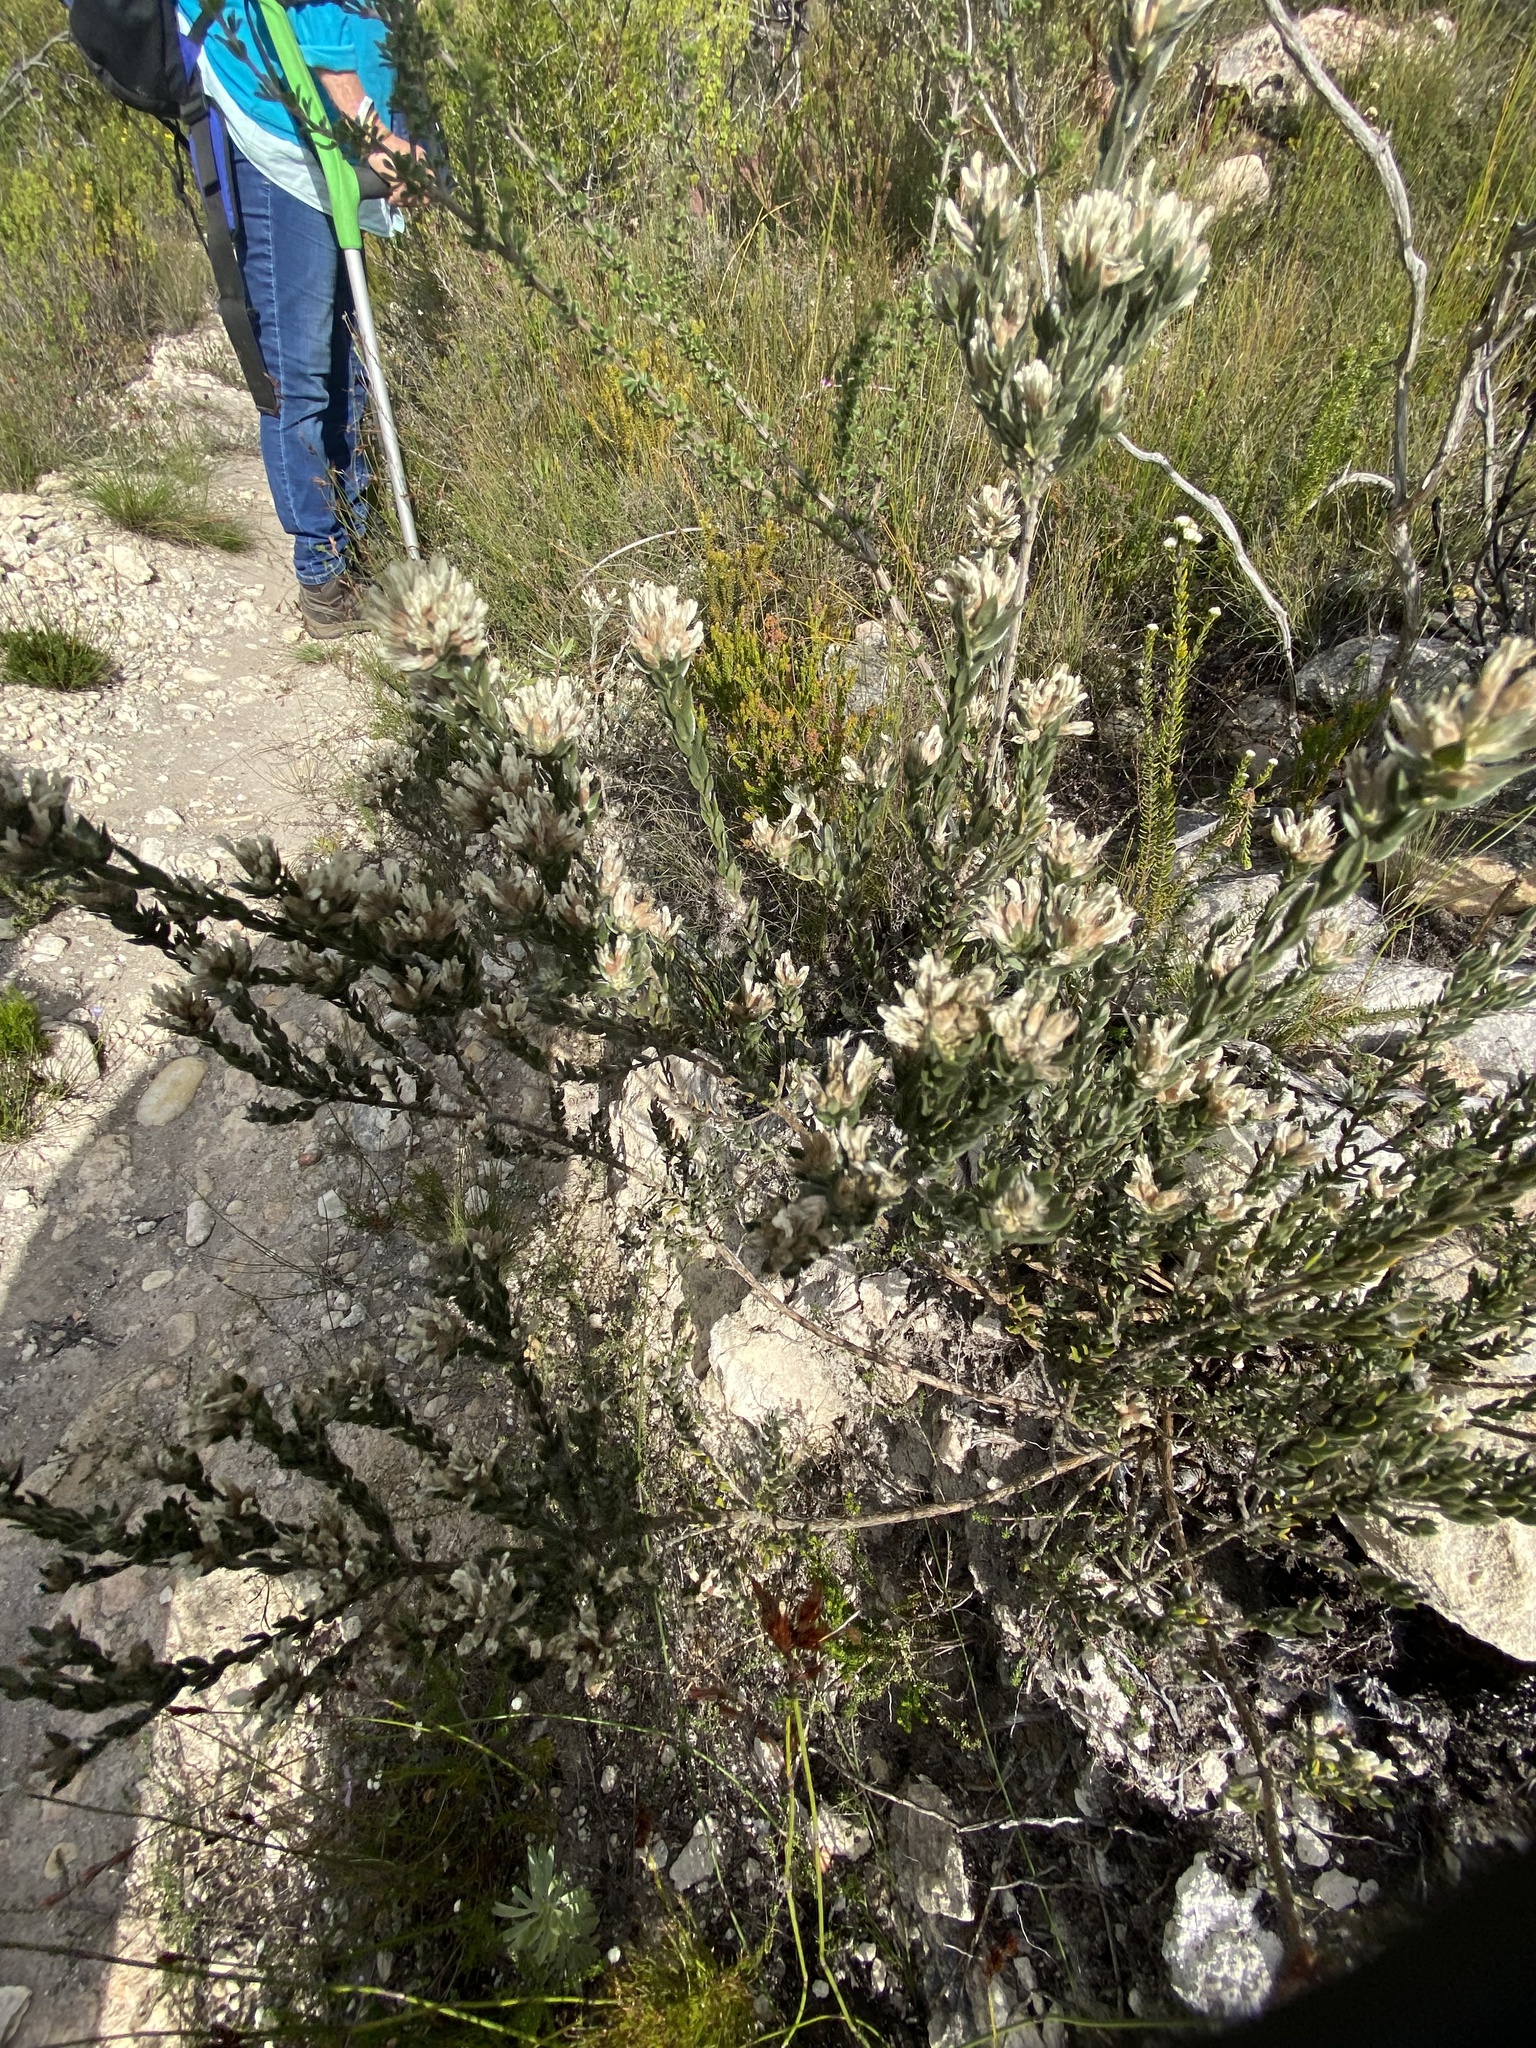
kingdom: Plantae
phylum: Tracheophyta
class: Magnoliopsida
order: Fabales
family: Fabaceae
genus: Amphithalea
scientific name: Amphithalea alba
